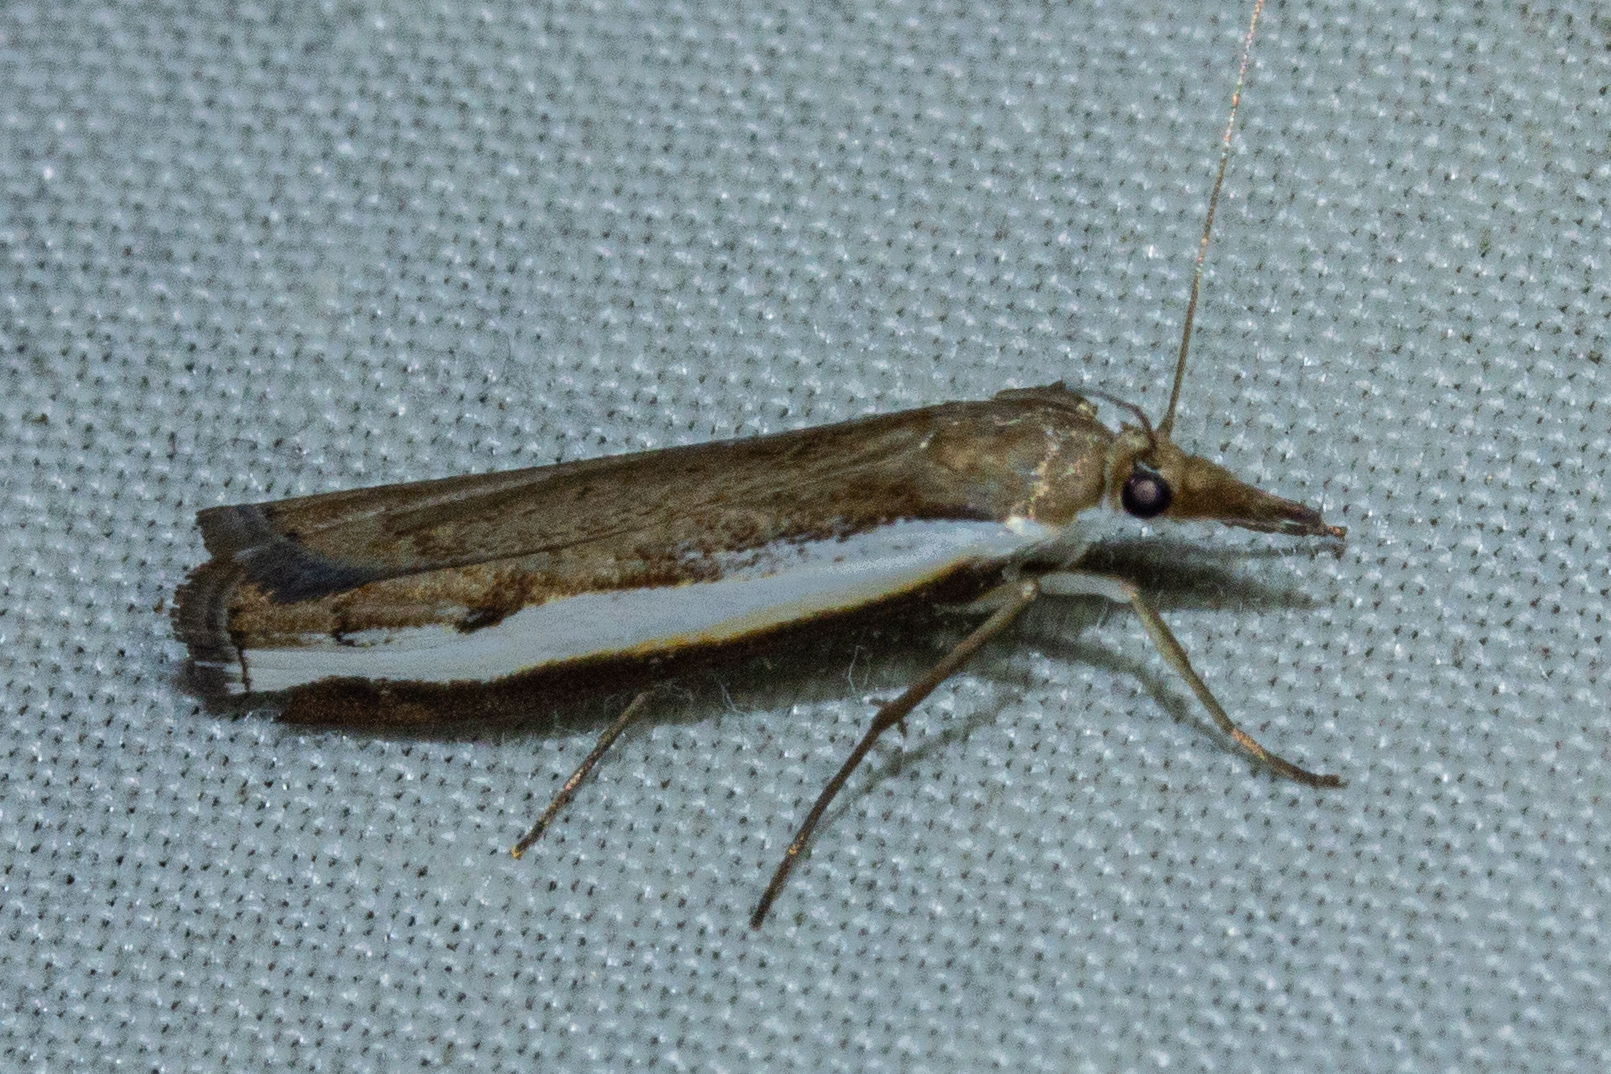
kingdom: Animalia
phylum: Arthropoda
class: Insecta
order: Lepidoptera
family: Crambidae
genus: Orocrambus
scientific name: Orocrambus flexuosellus
